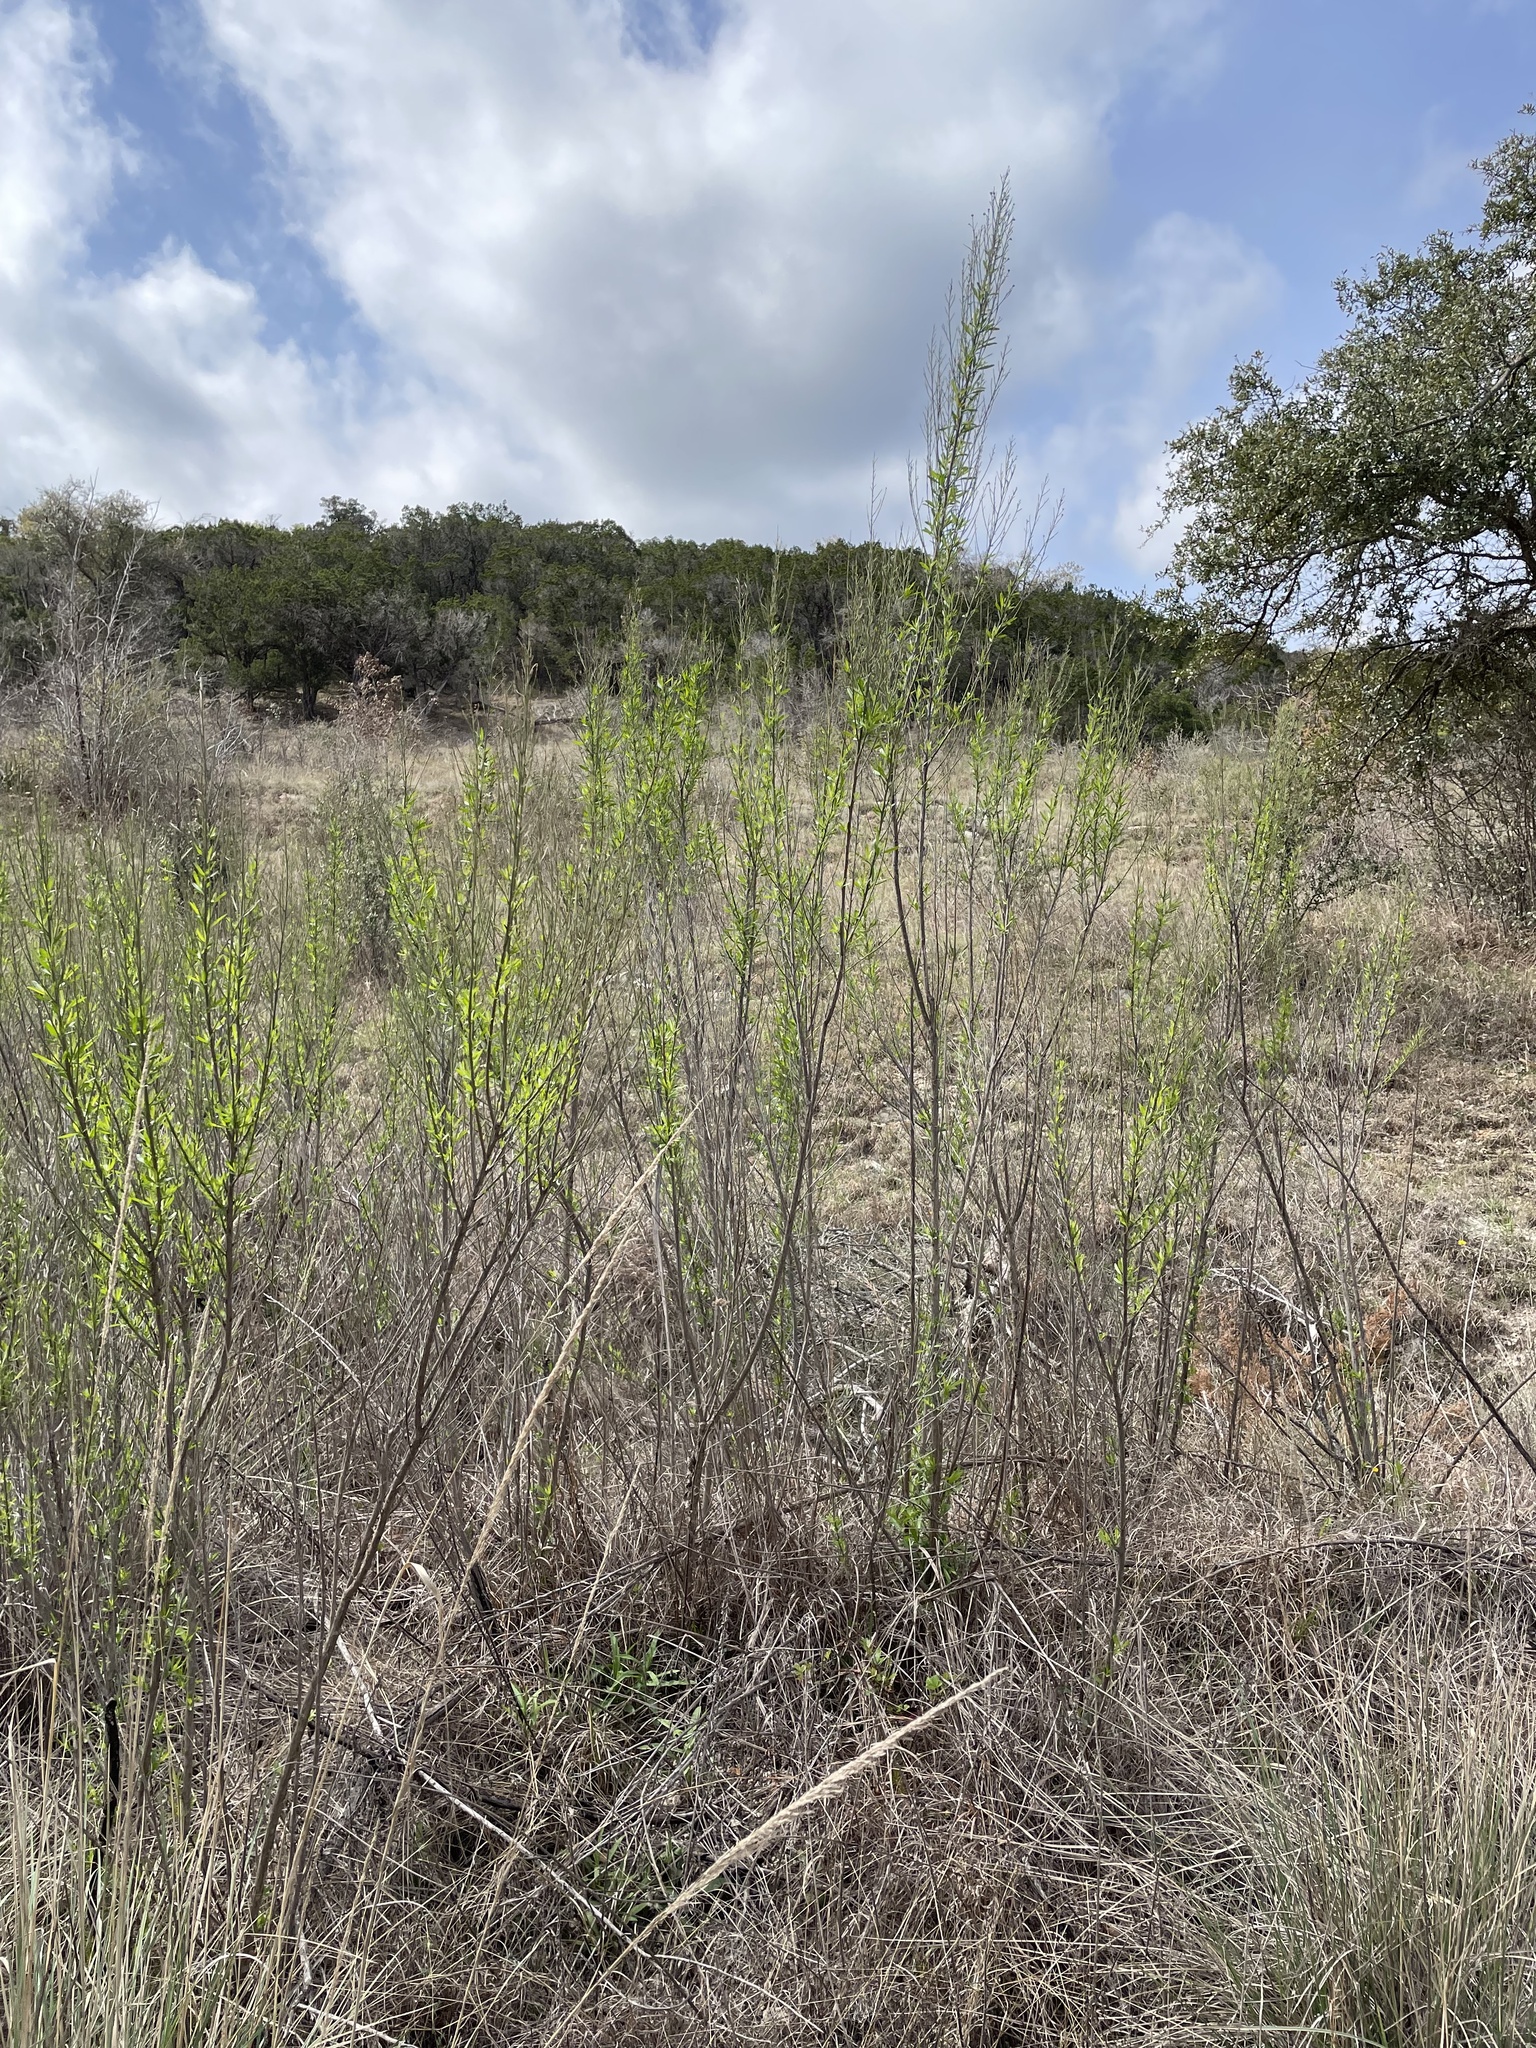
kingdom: Plantae
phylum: Tracheophyta
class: Magnoliopsida
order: Asterales
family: Asteraceae
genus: Baccharis
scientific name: Baccharis neglecta
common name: Roosevelt-weed
